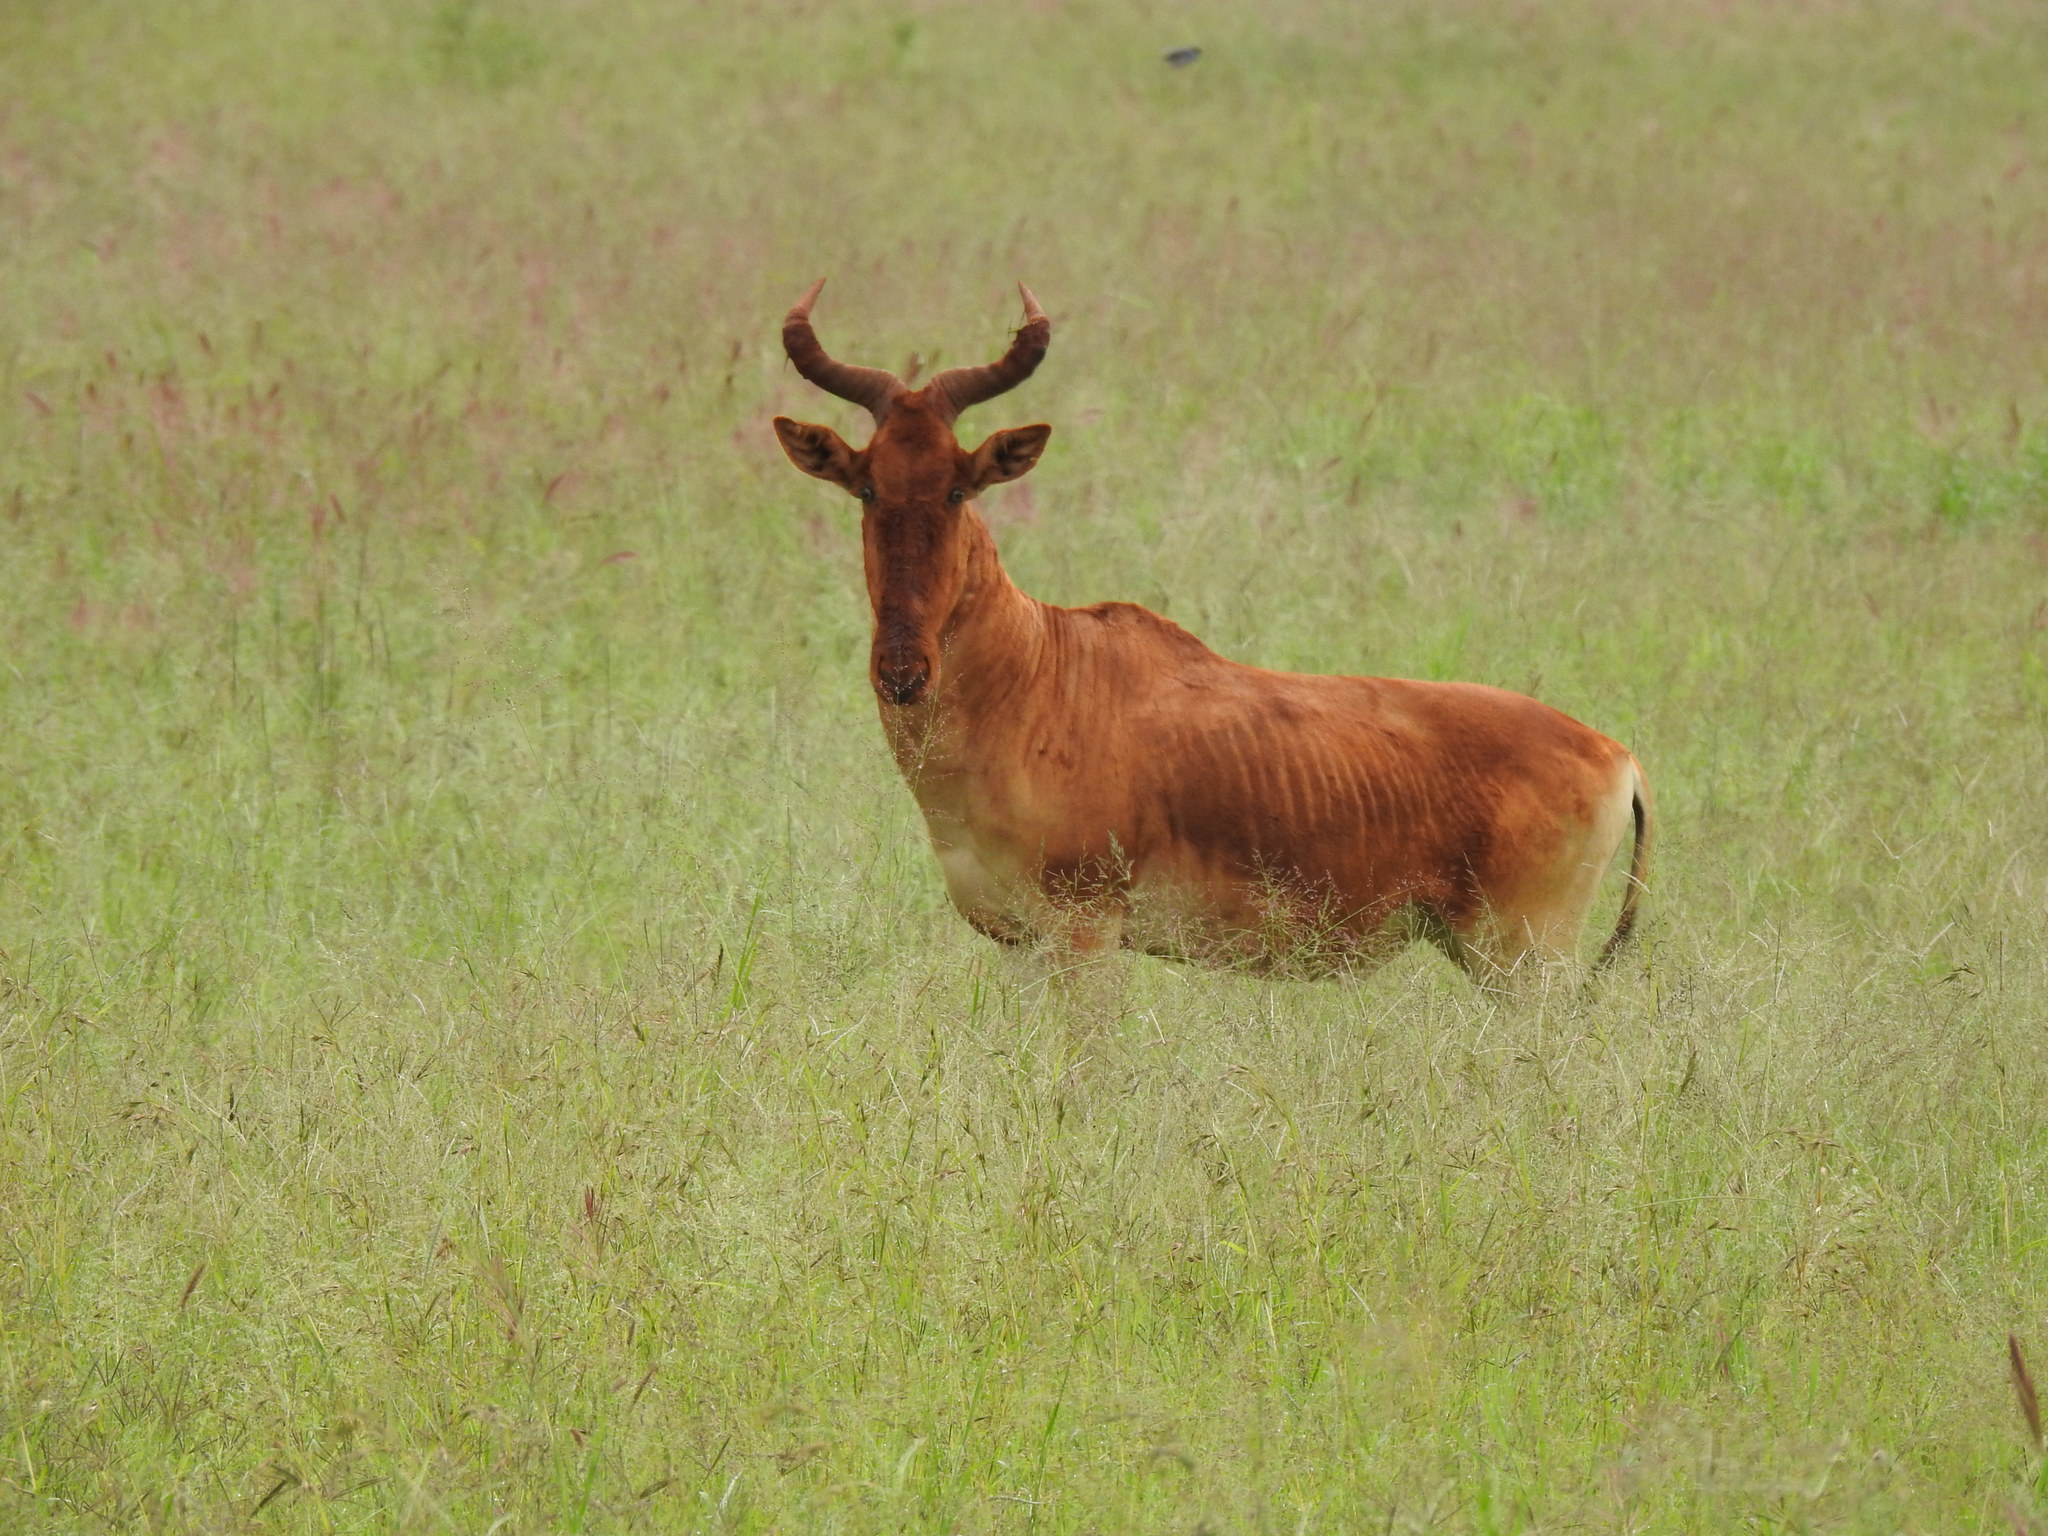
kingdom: Animalia
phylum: Chordata
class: Mammalia
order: Artiodactyla
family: Bovidae
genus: Alcelaphus
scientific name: Alcelaphus buselaphus
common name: Hartebeest
